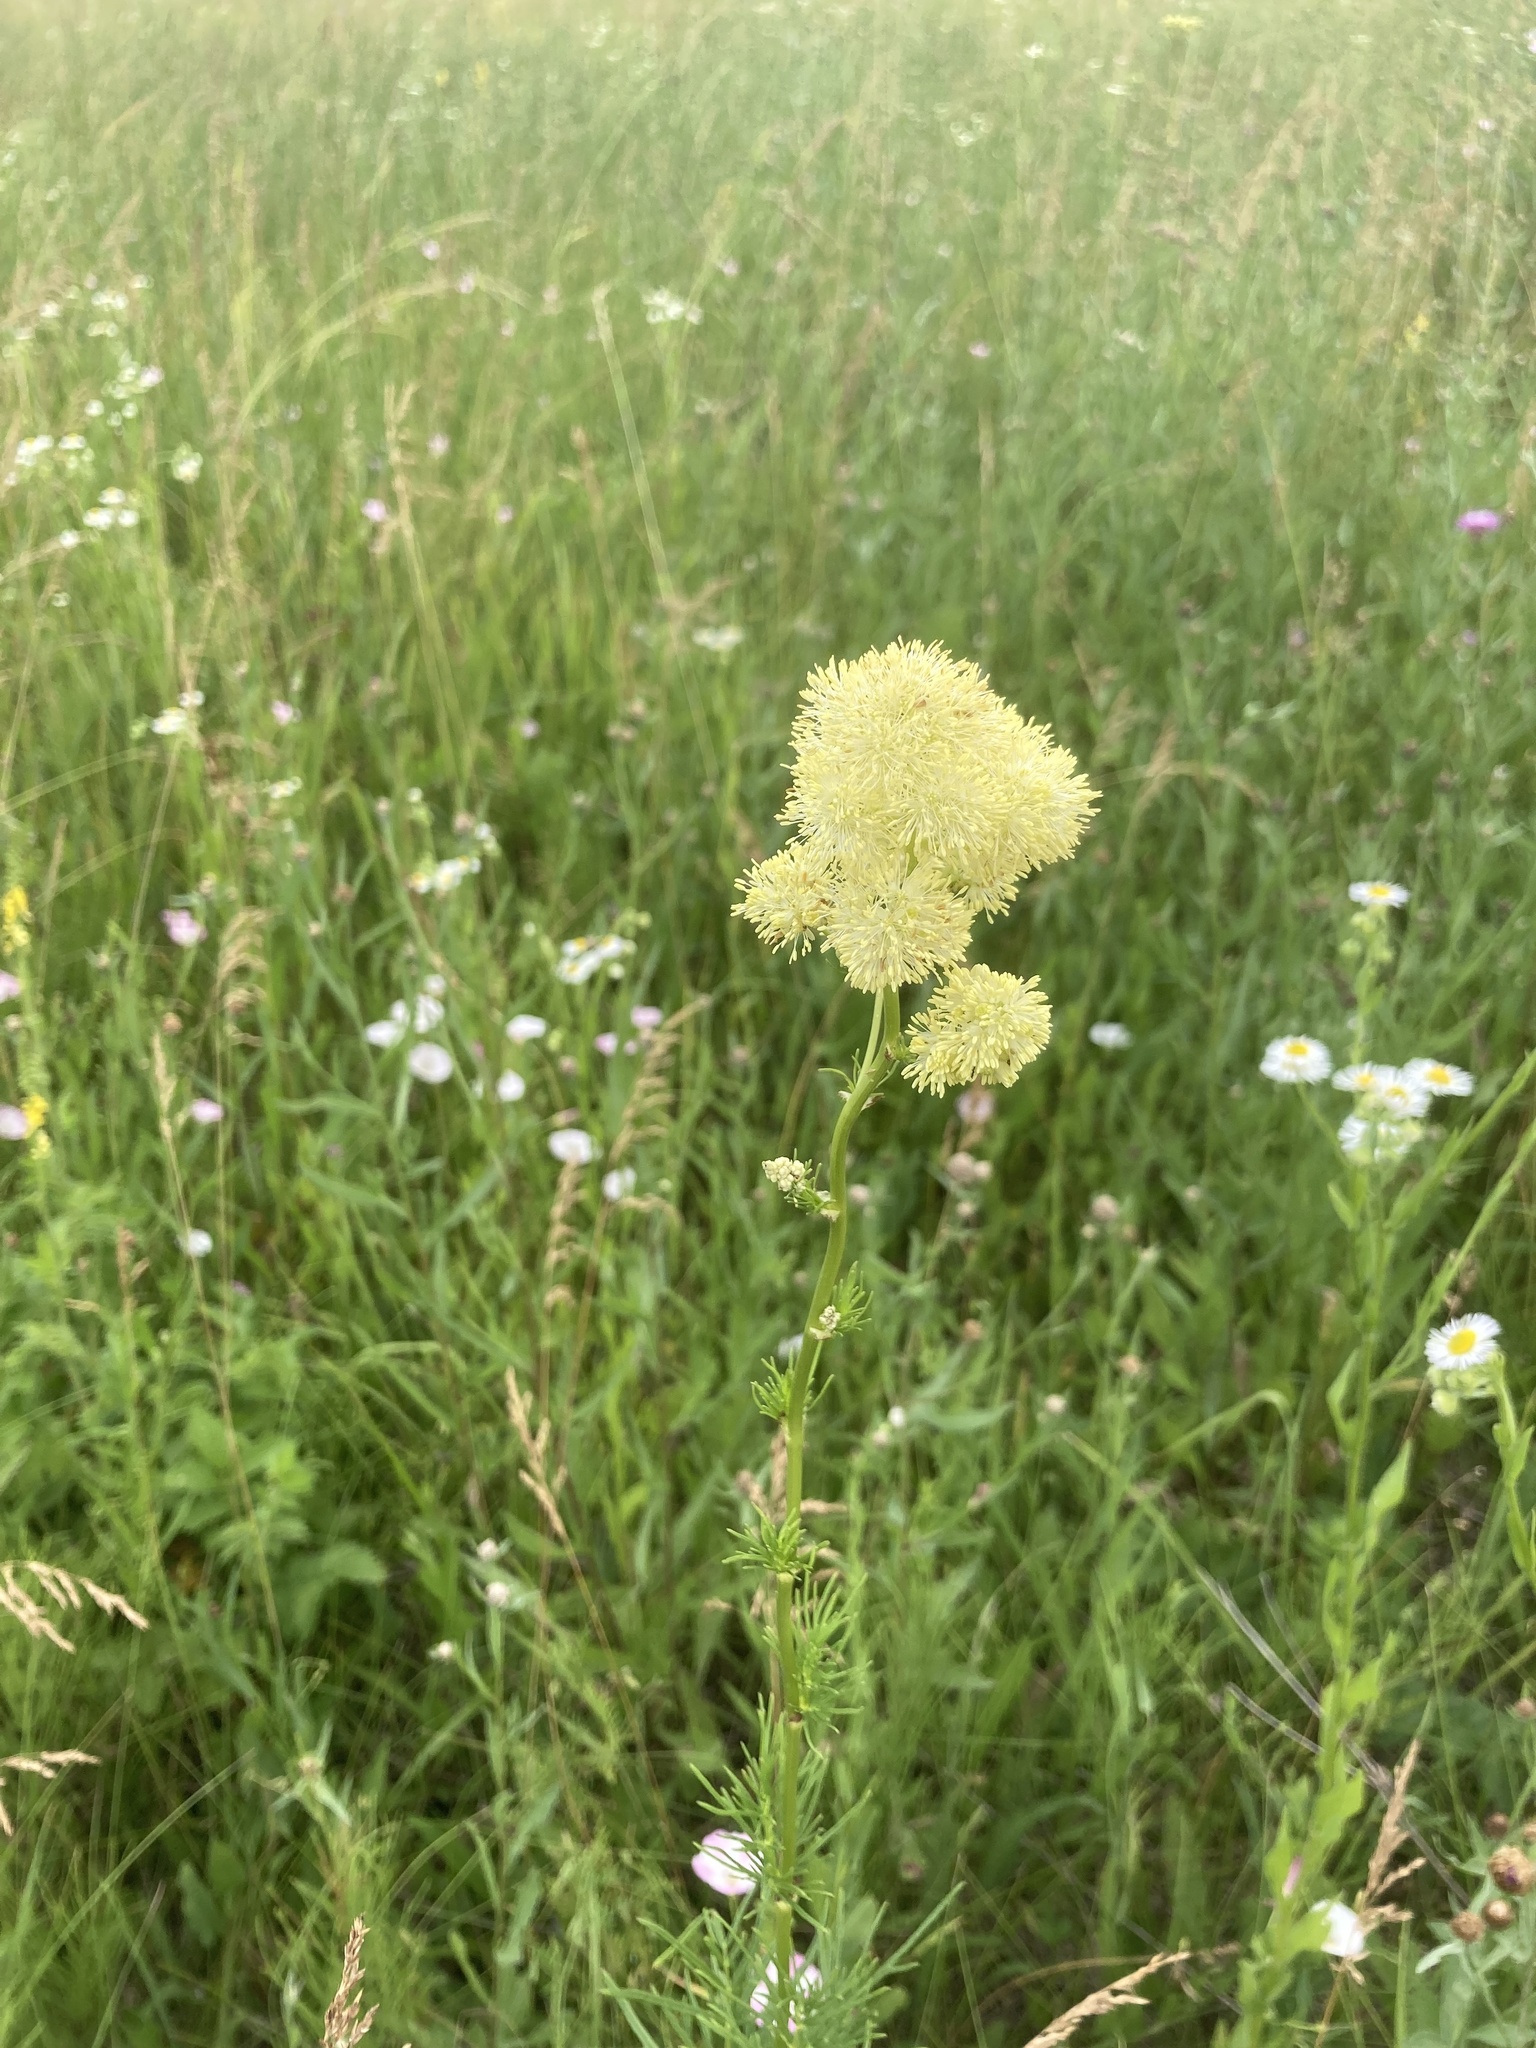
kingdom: Plantae
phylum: Tracheophyta
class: Magnoliopsida
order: Ranunculales
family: Ranunculaceae
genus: Thalictrum
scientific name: Thalictrum lucidum
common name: Shining meadow-rue
